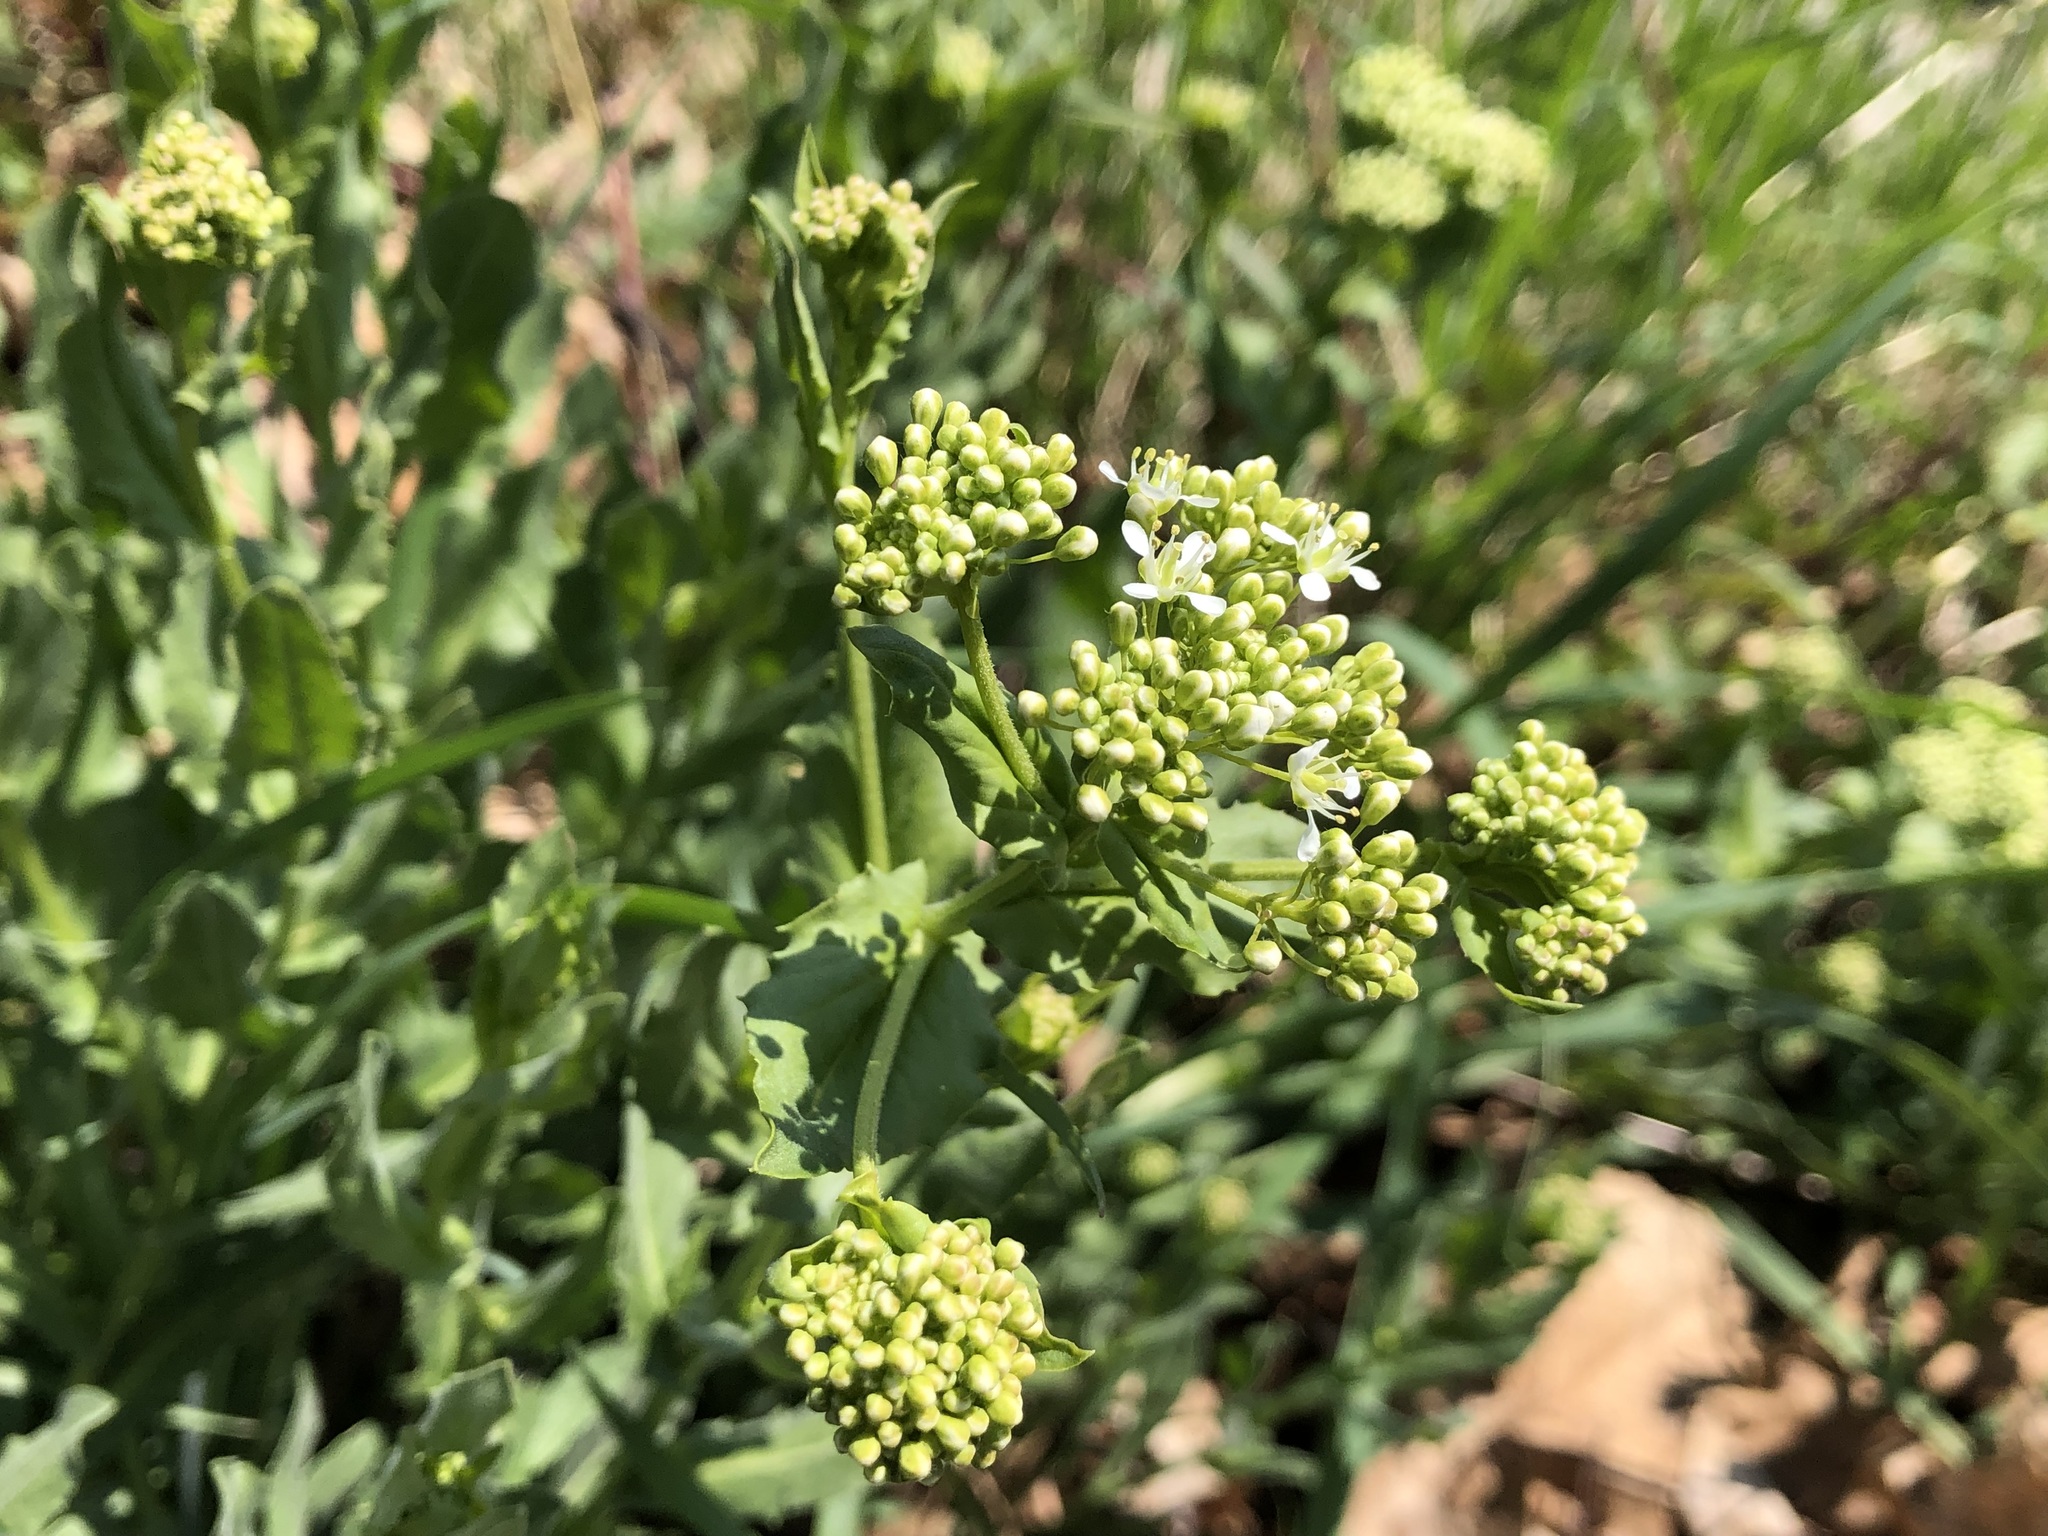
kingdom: Plantae
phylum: Tracheophyta
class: Magnoliopsida
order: Brassicales
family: Brassicaceae
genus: Lepidium
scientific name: Lepidium draba
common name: Hoary cress
